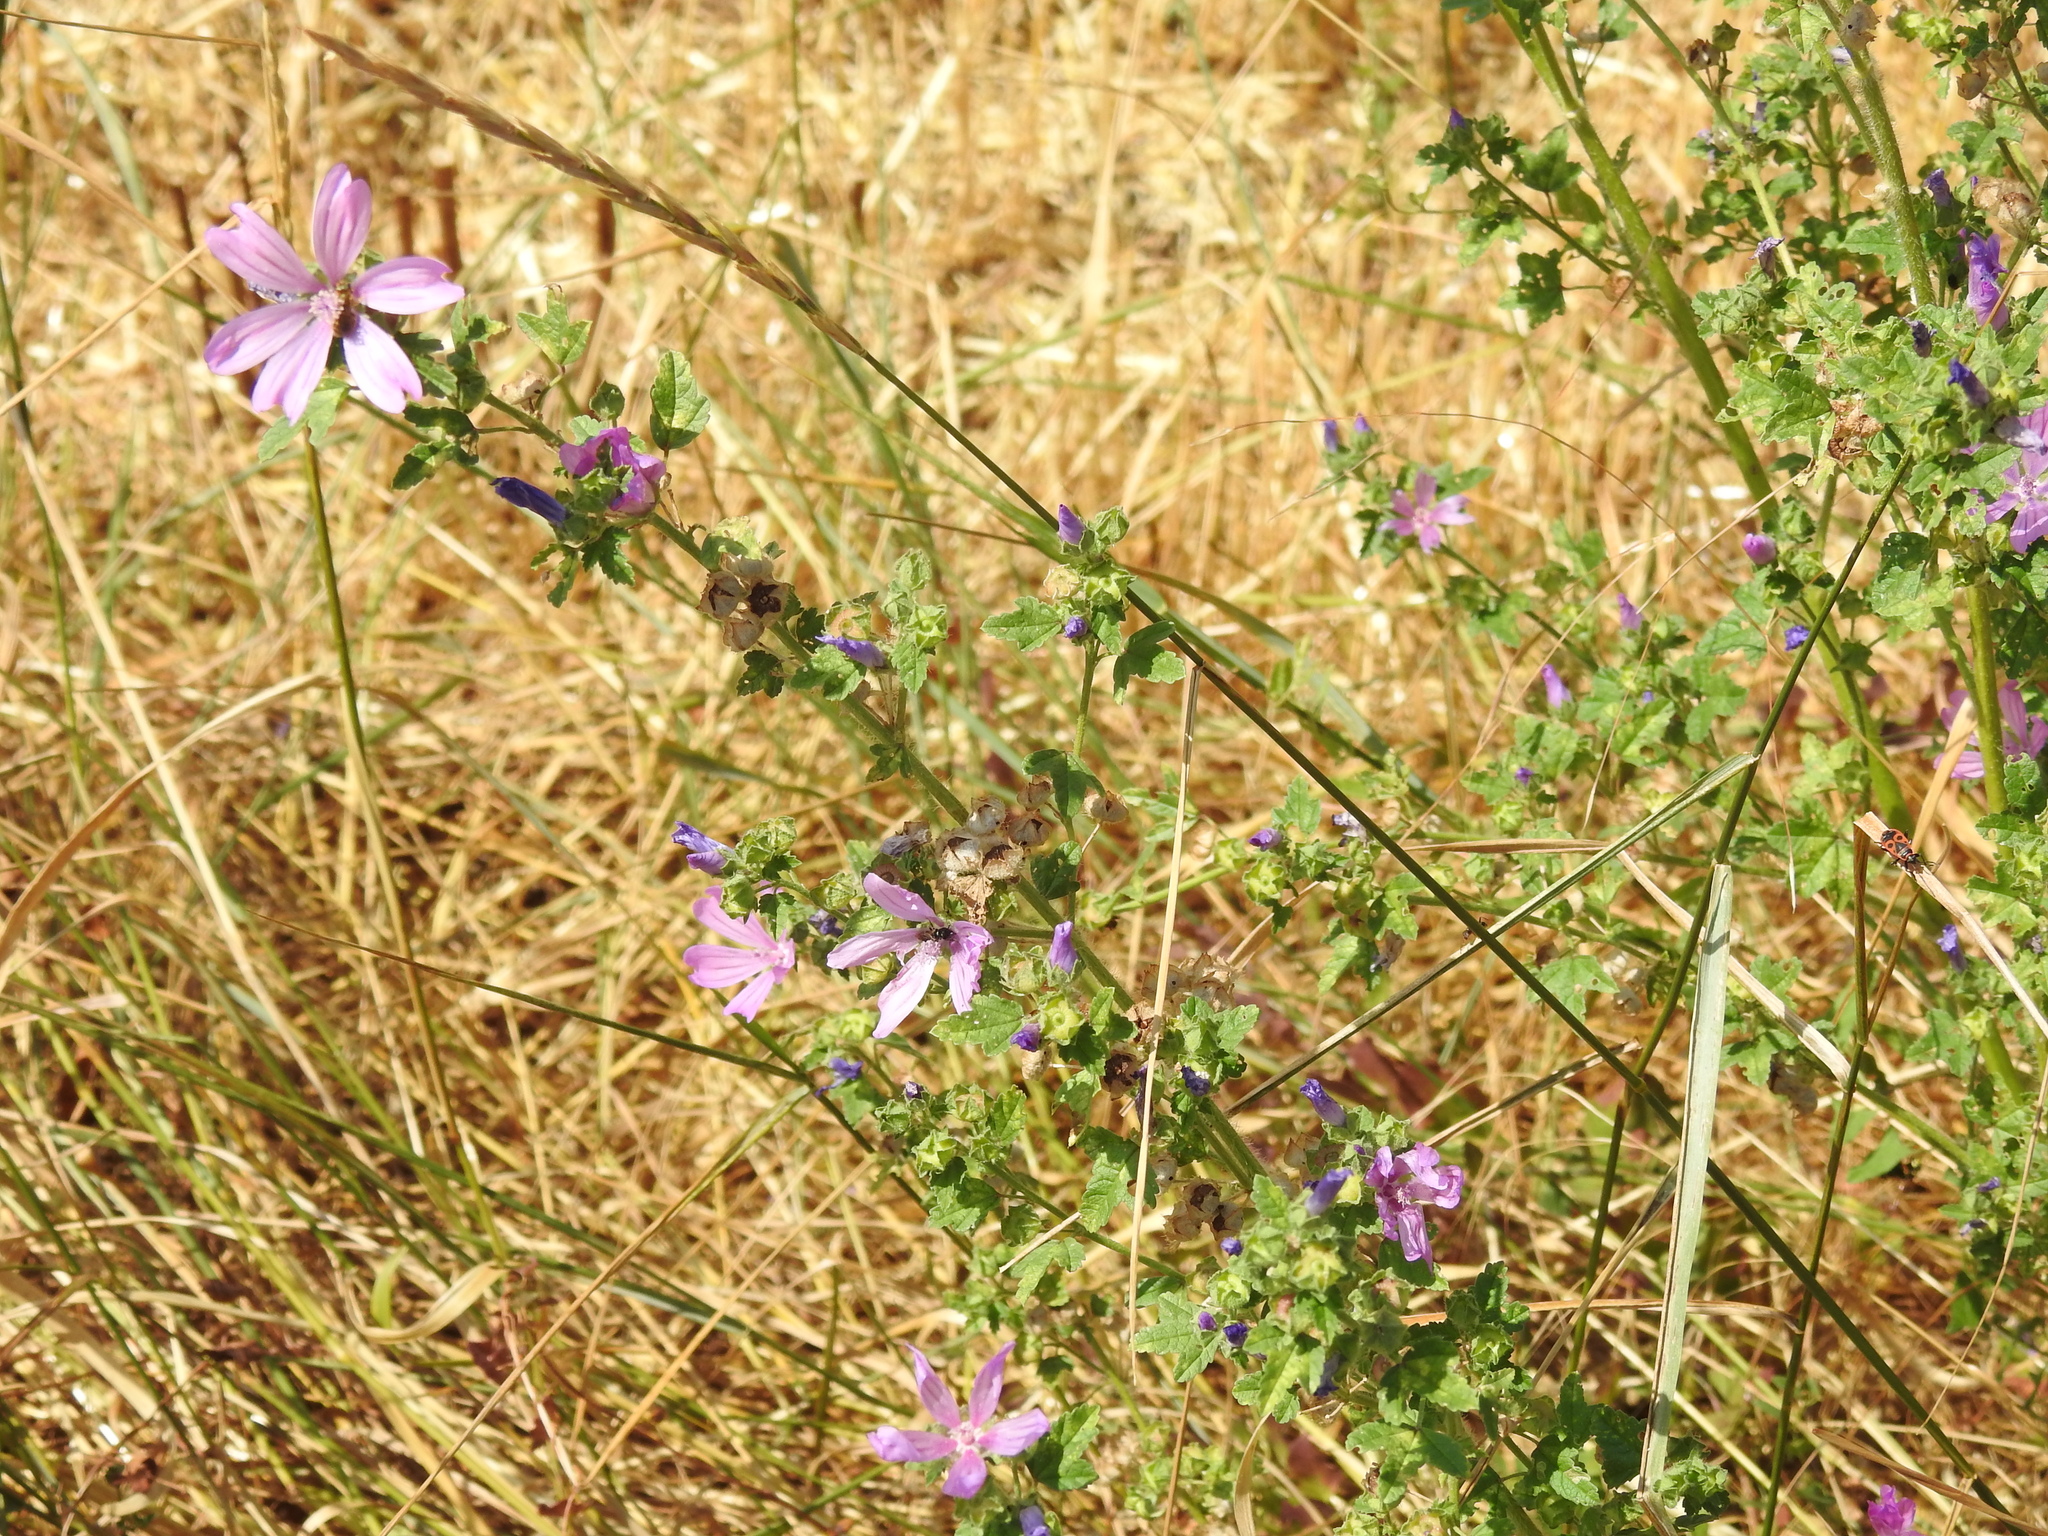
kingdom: Plantae
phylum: Tracheophyta
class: Magnoliopsida
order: Malvales
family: Malvaceae
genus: Malva
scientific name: Malva sylvestris
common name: Common mallow
